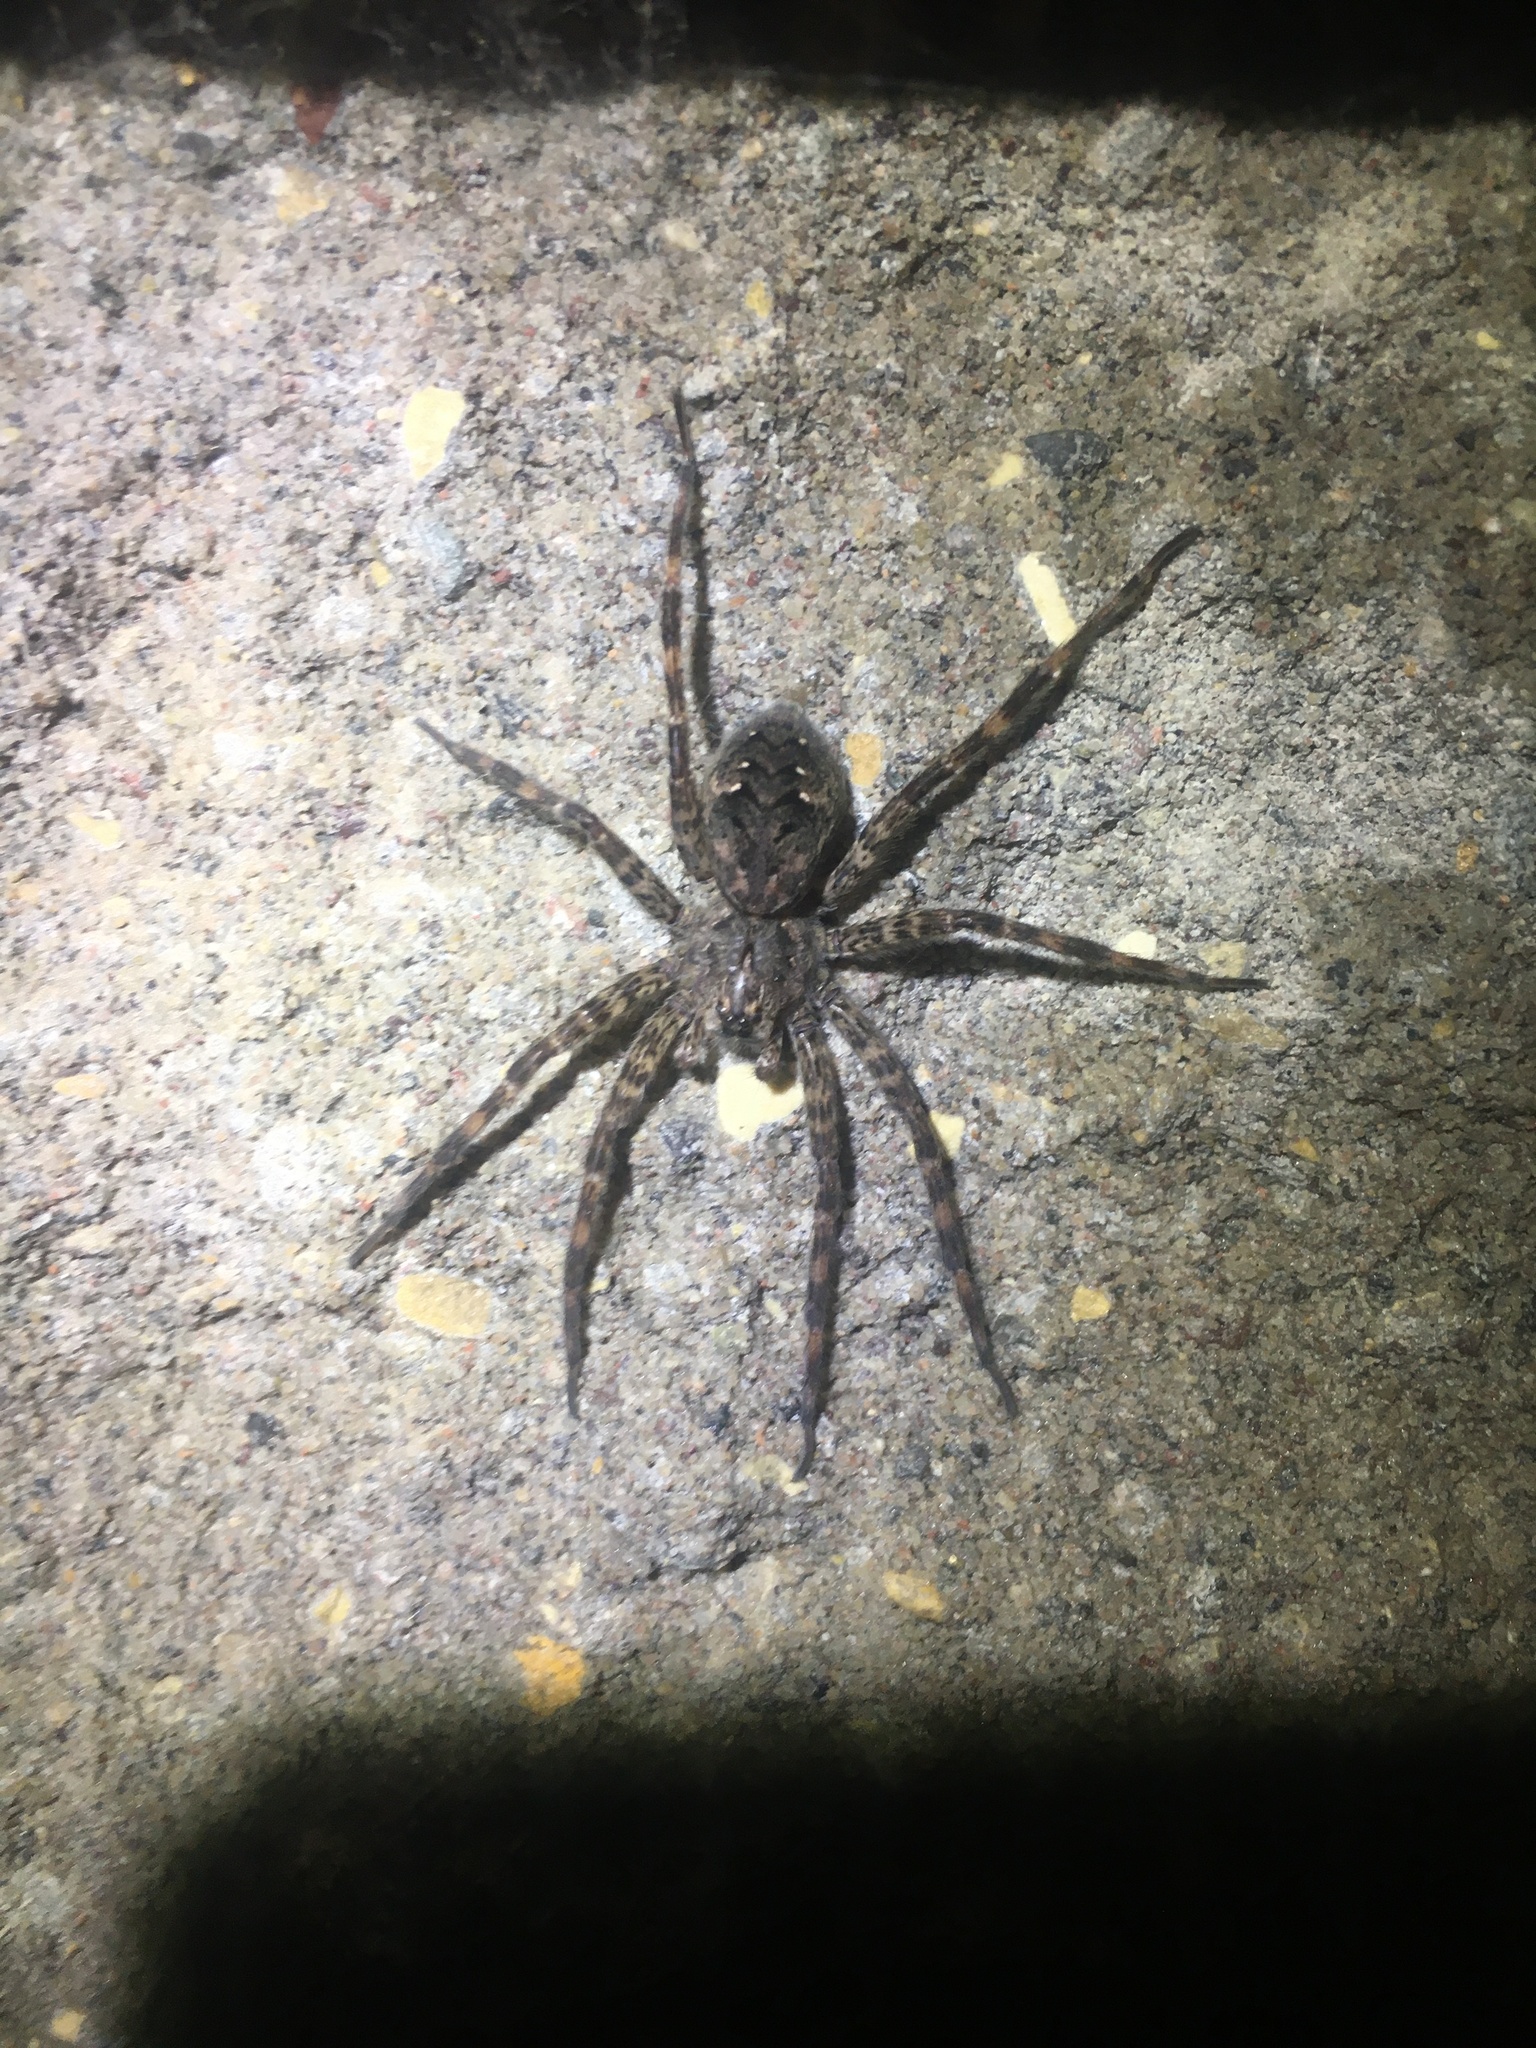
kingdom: Animalia
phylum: Arthropoda
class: Arachnida
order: Araneae
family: Pisauridae
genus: Dolomedes
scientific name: Dolomedes tenebrosus
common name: Dark fishing spider
